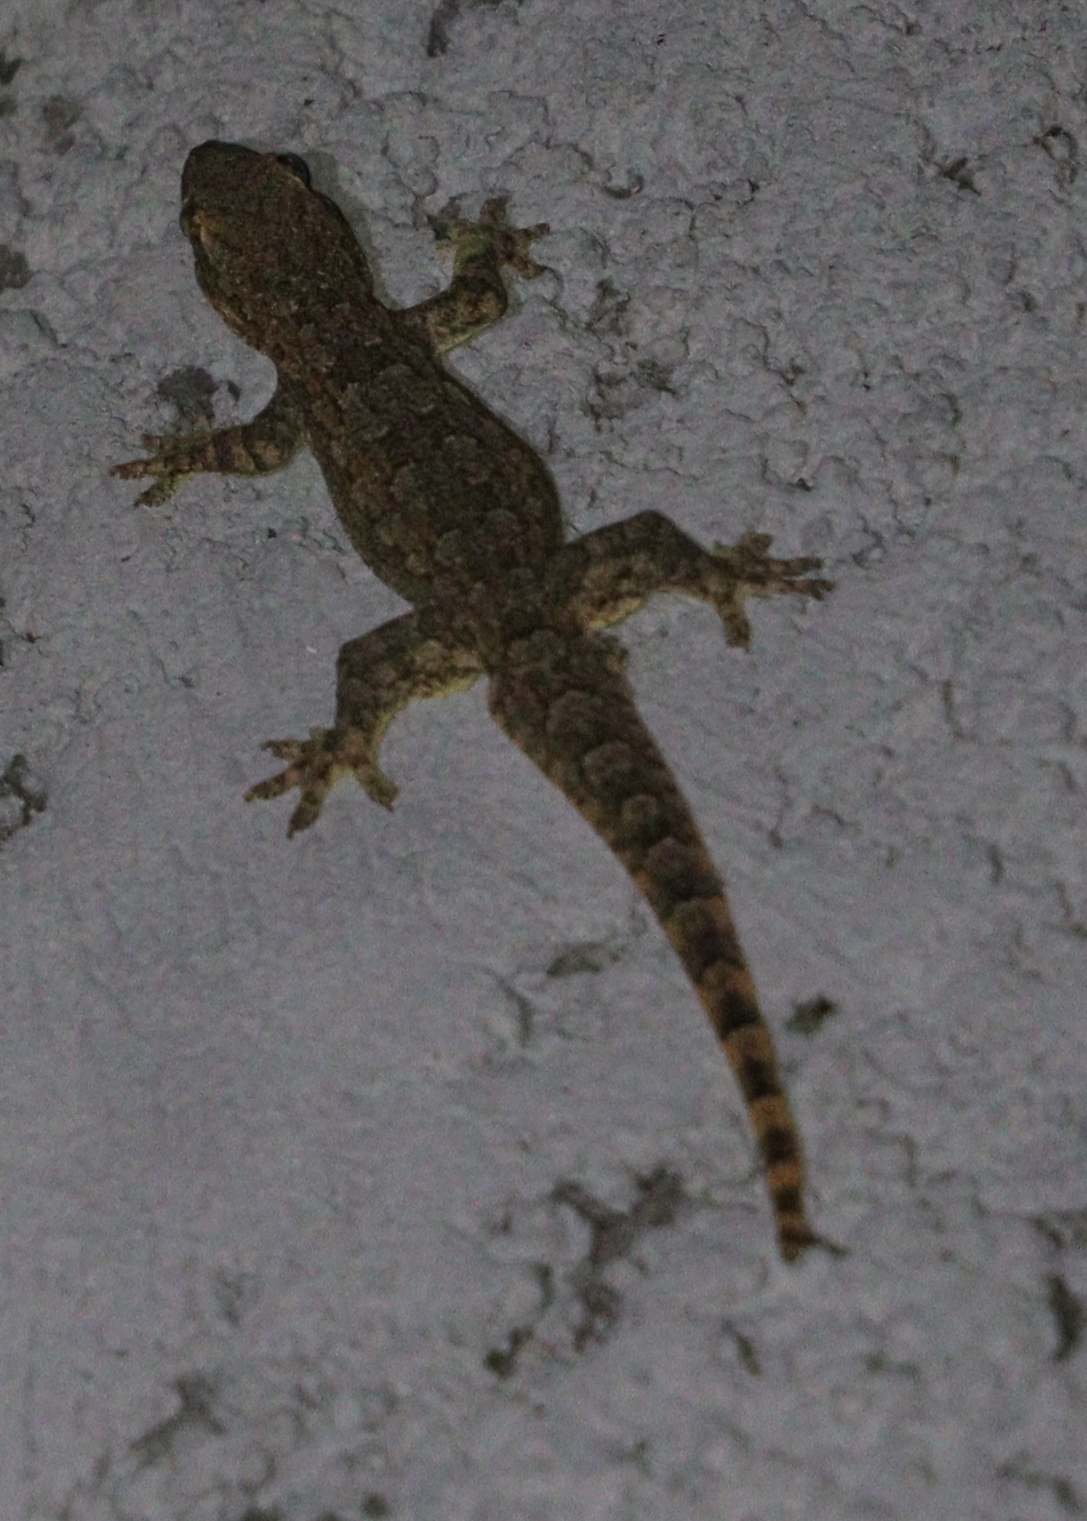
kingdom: Animalia
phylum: Chordata
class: Squamata
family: Gekkonidae
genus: Hemidactylus
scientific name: Hemidactylus platyurus
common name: Flat-tailed house gecko
